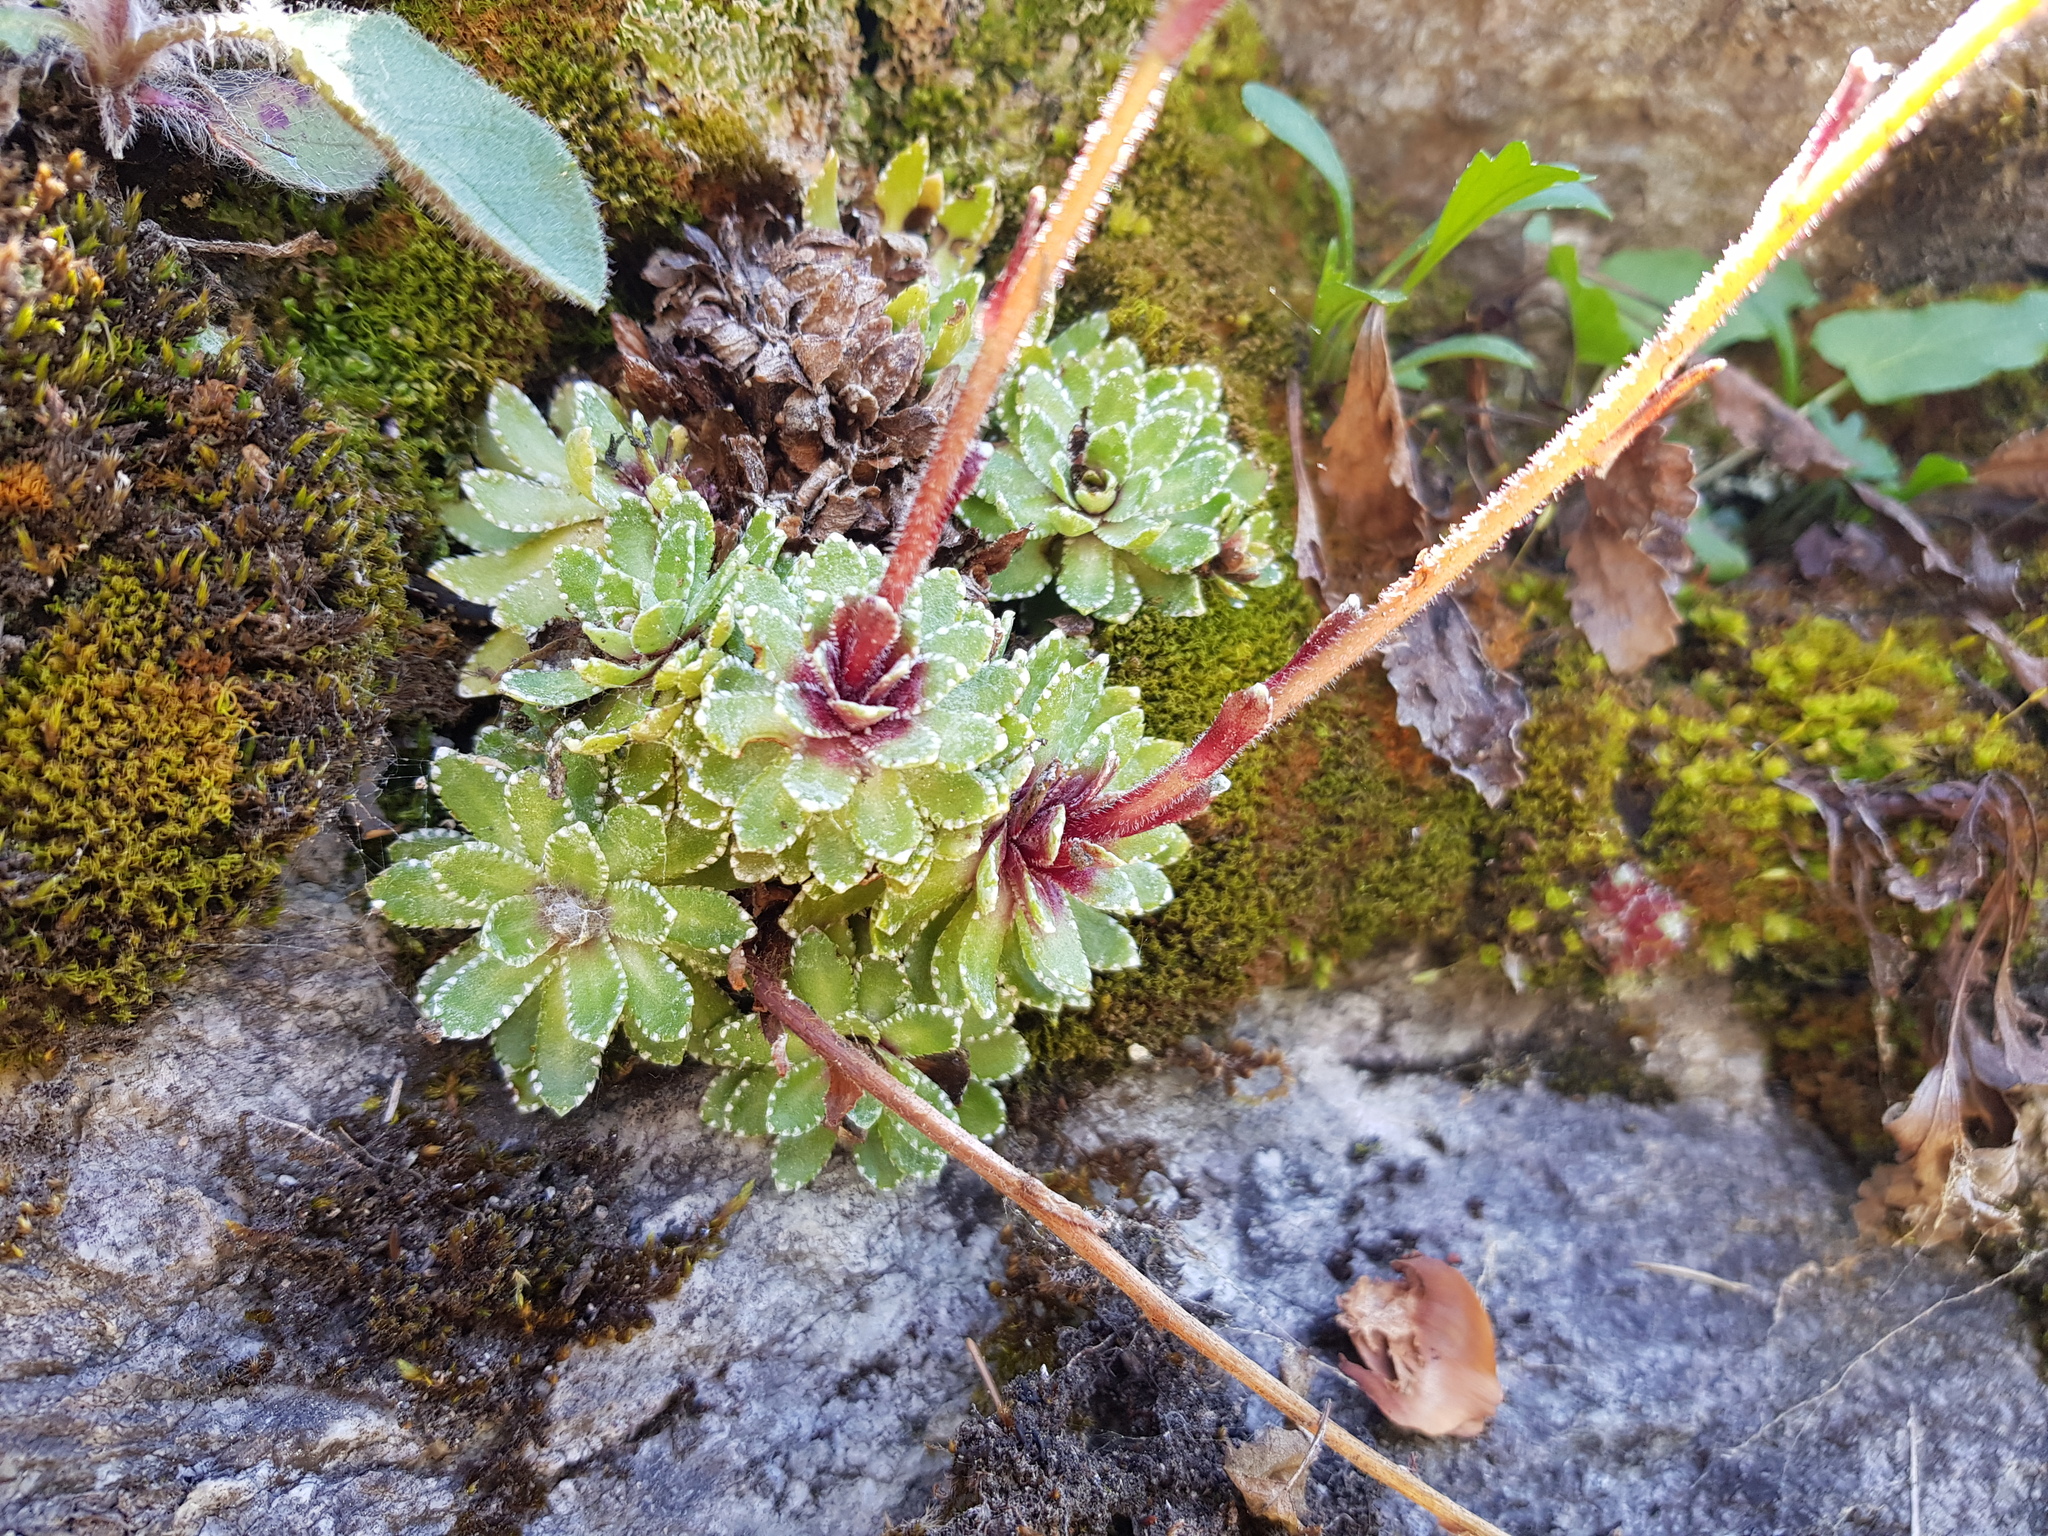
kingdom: Plantae
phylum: Tracheophyta
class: Magnoliopsida
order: Saxifragales
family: Saxifragaceae
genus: Saxifraga
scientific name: Saxifraga paniculata
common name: Livelong saxifrage
